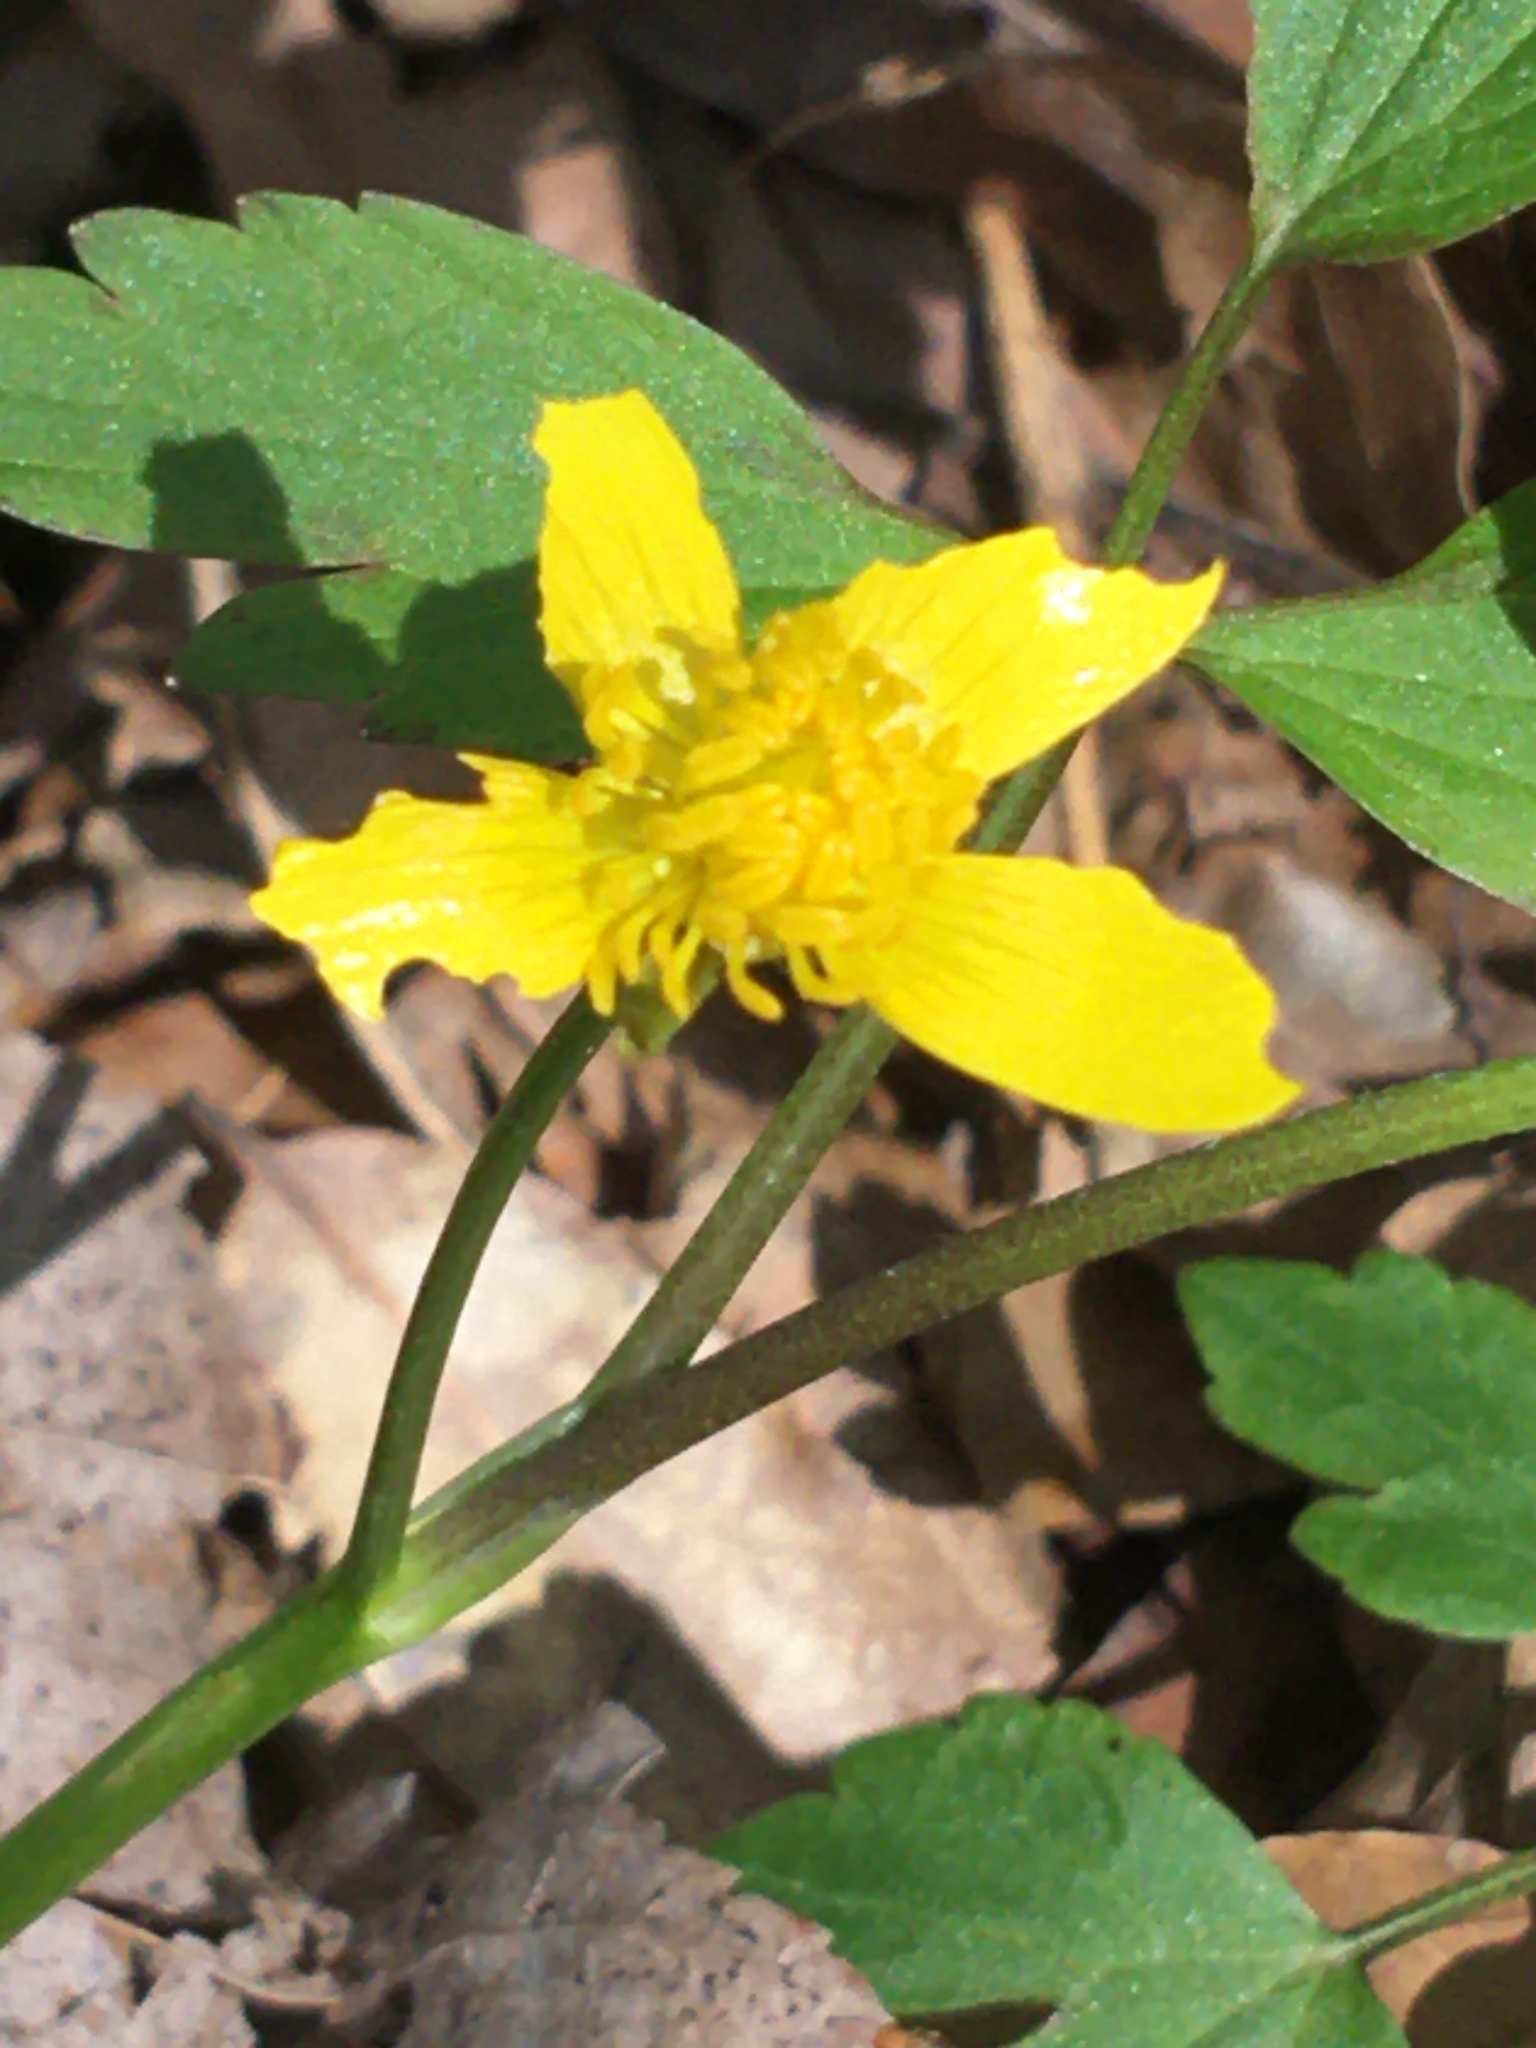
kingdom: Plantae
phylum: Tracheophyta
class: Magnoliopsida
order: Ranunculales
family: Ranunculaceae
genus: Ranunculus
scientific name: Ranunculus hispidus
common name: Bristly buttercup
